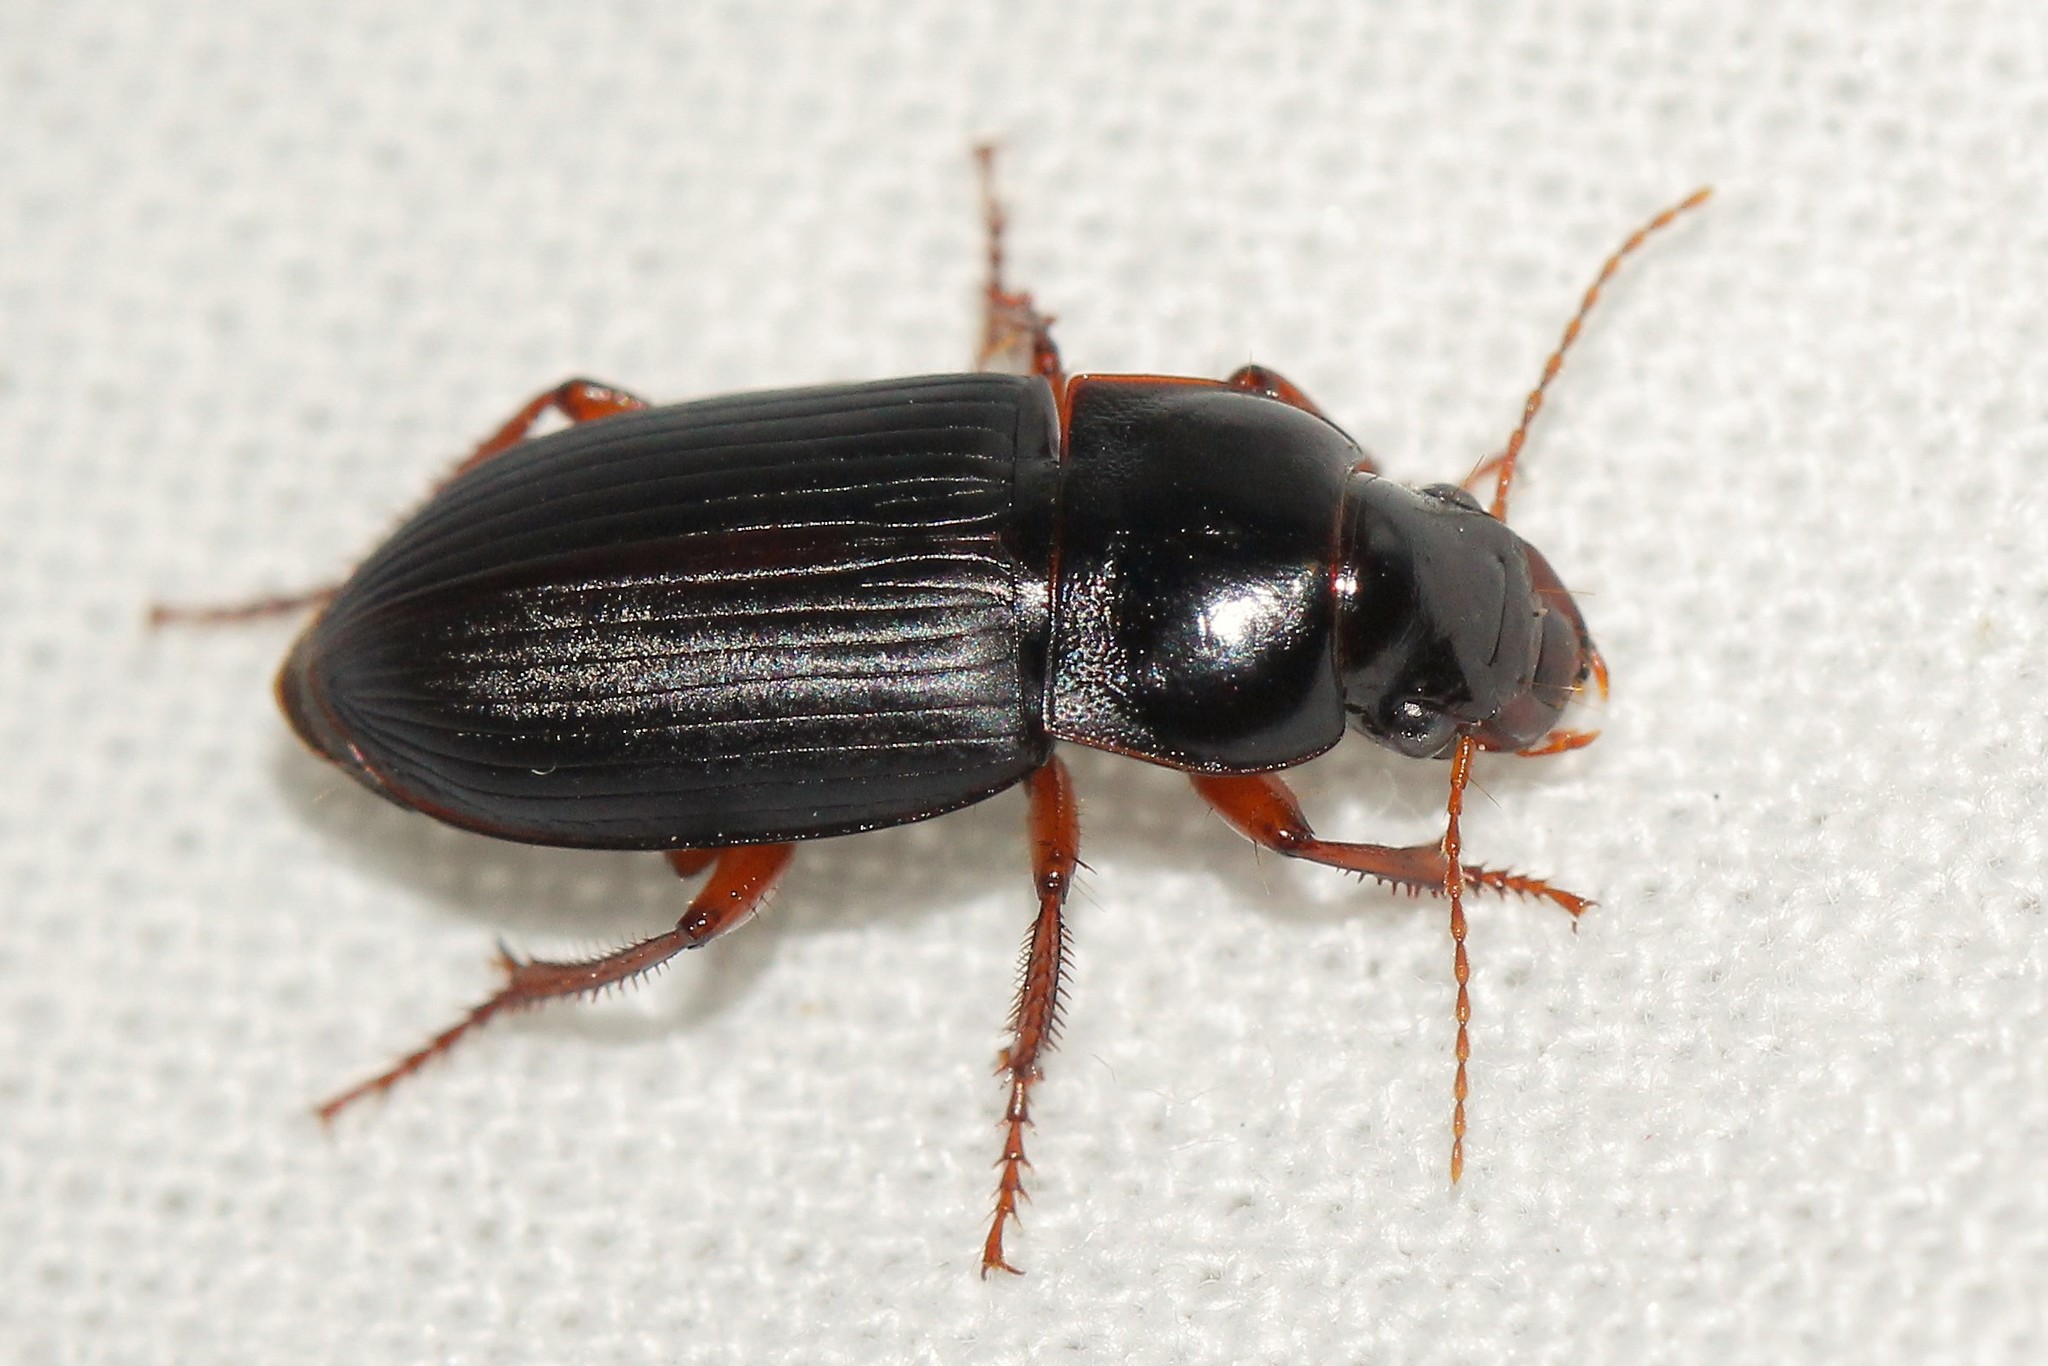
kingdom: Animalia
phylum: Arthropoda
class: Insecta
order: Coleoptera
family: Carabidae
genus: Harpalus
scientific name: Harpalus smaragdinus
